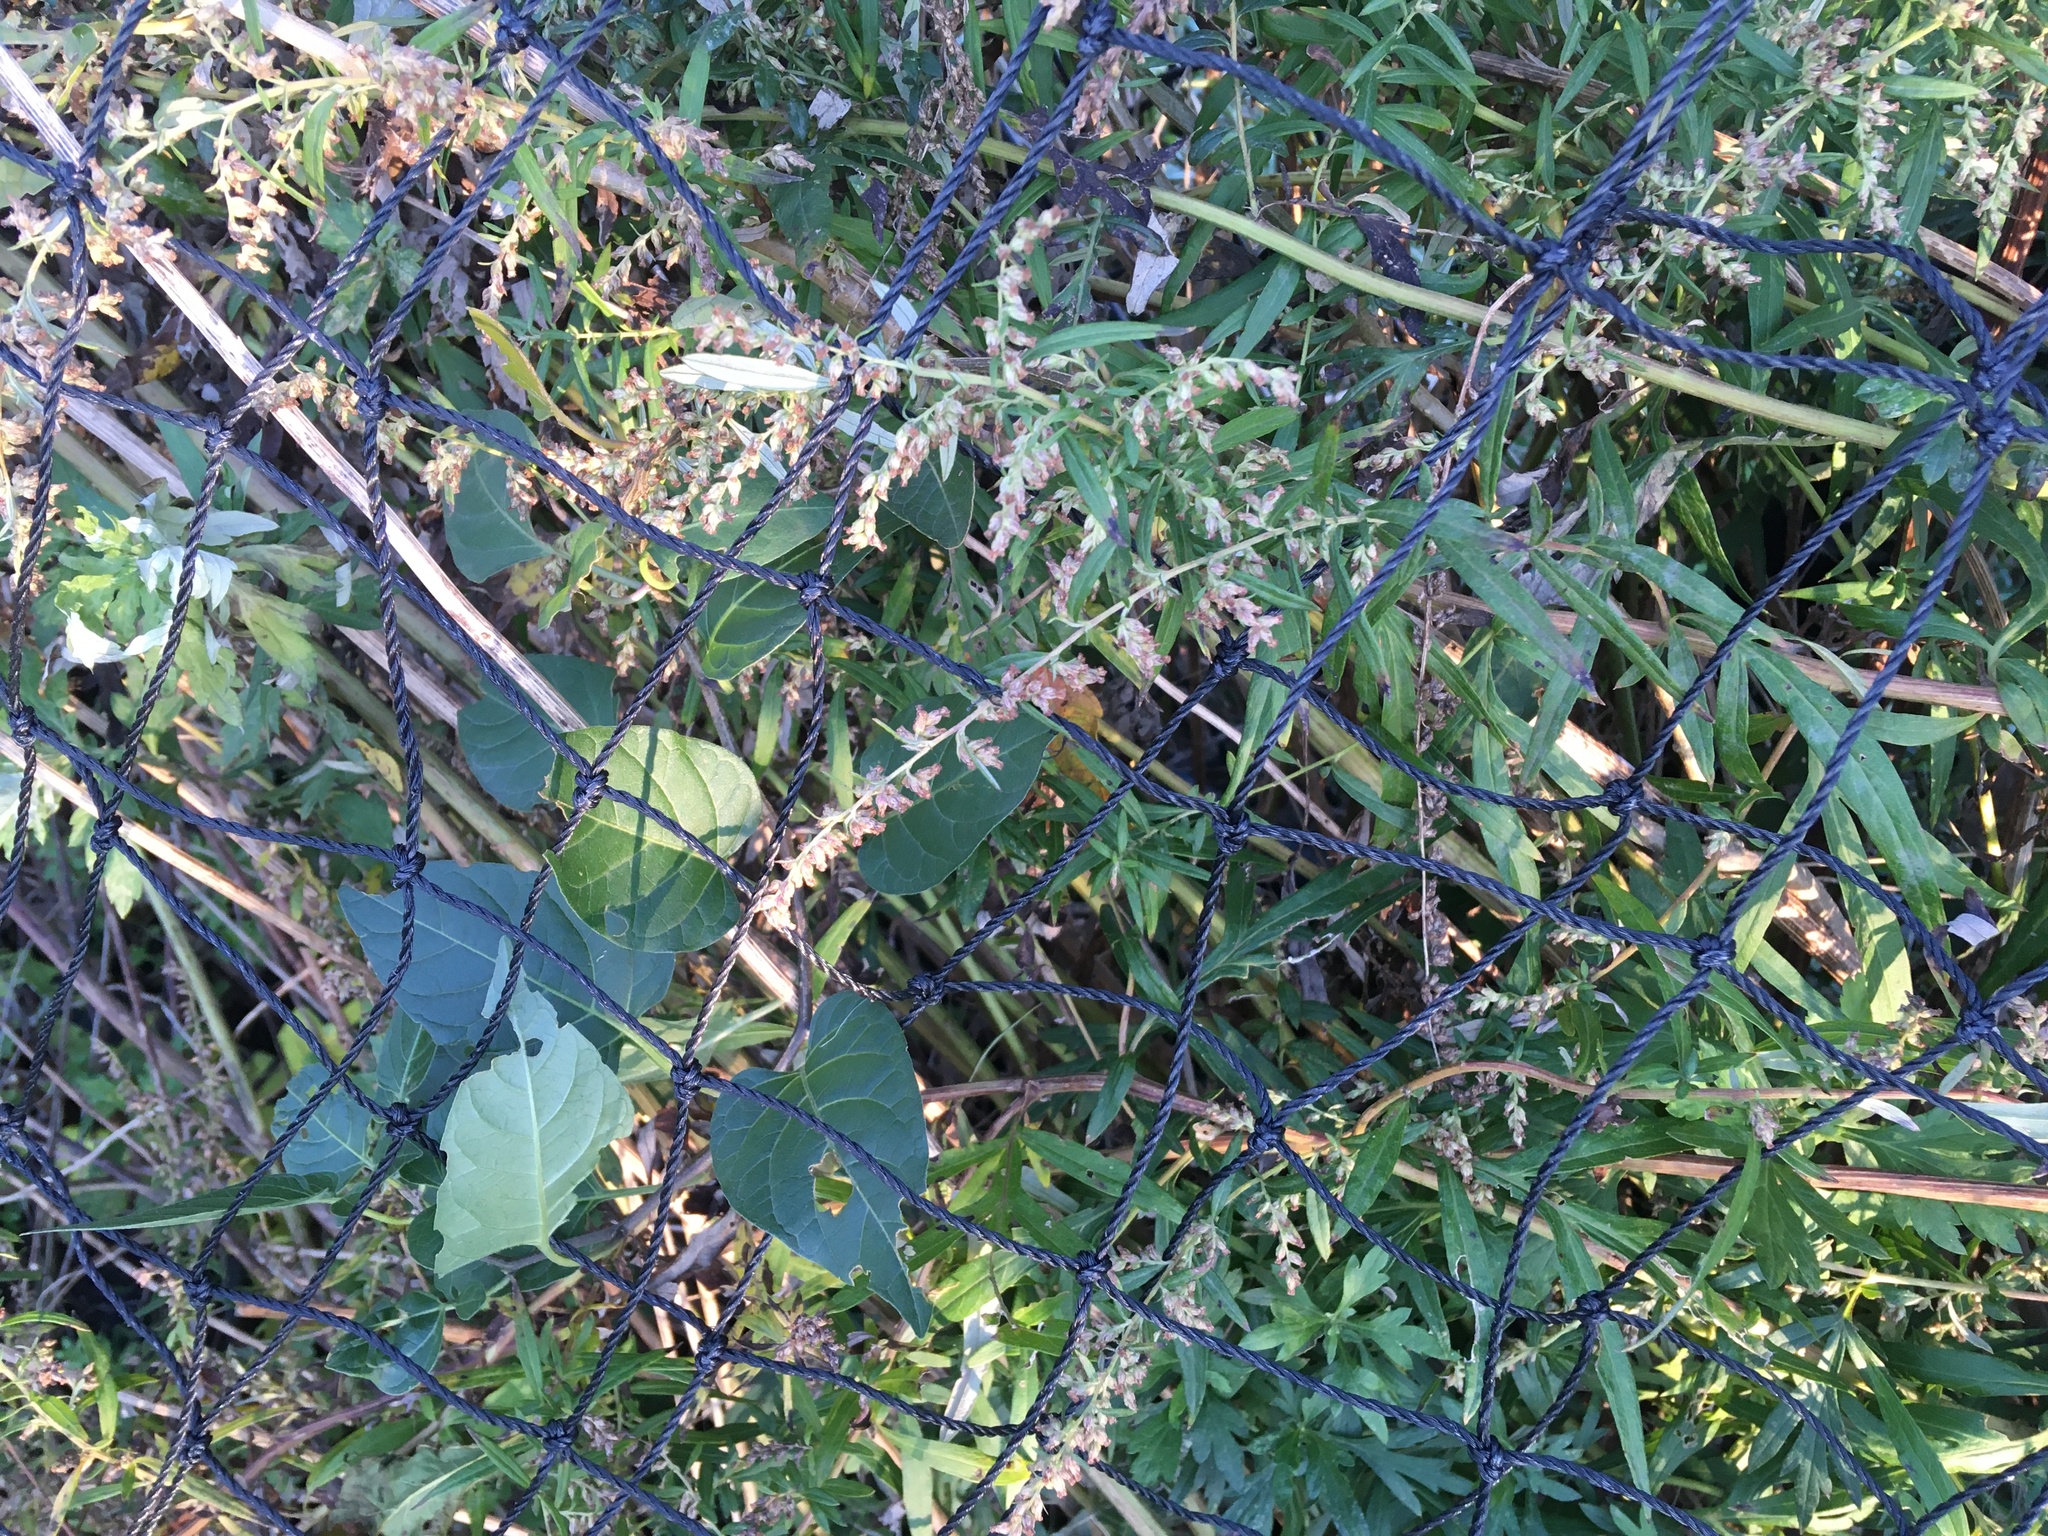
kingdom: Plantae
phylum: Tracheophyta
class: Magnoliopsida
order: Asterales
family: Asteraceae
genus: Artemisia
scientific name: Artemisia vulgaris
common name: Mugwort
